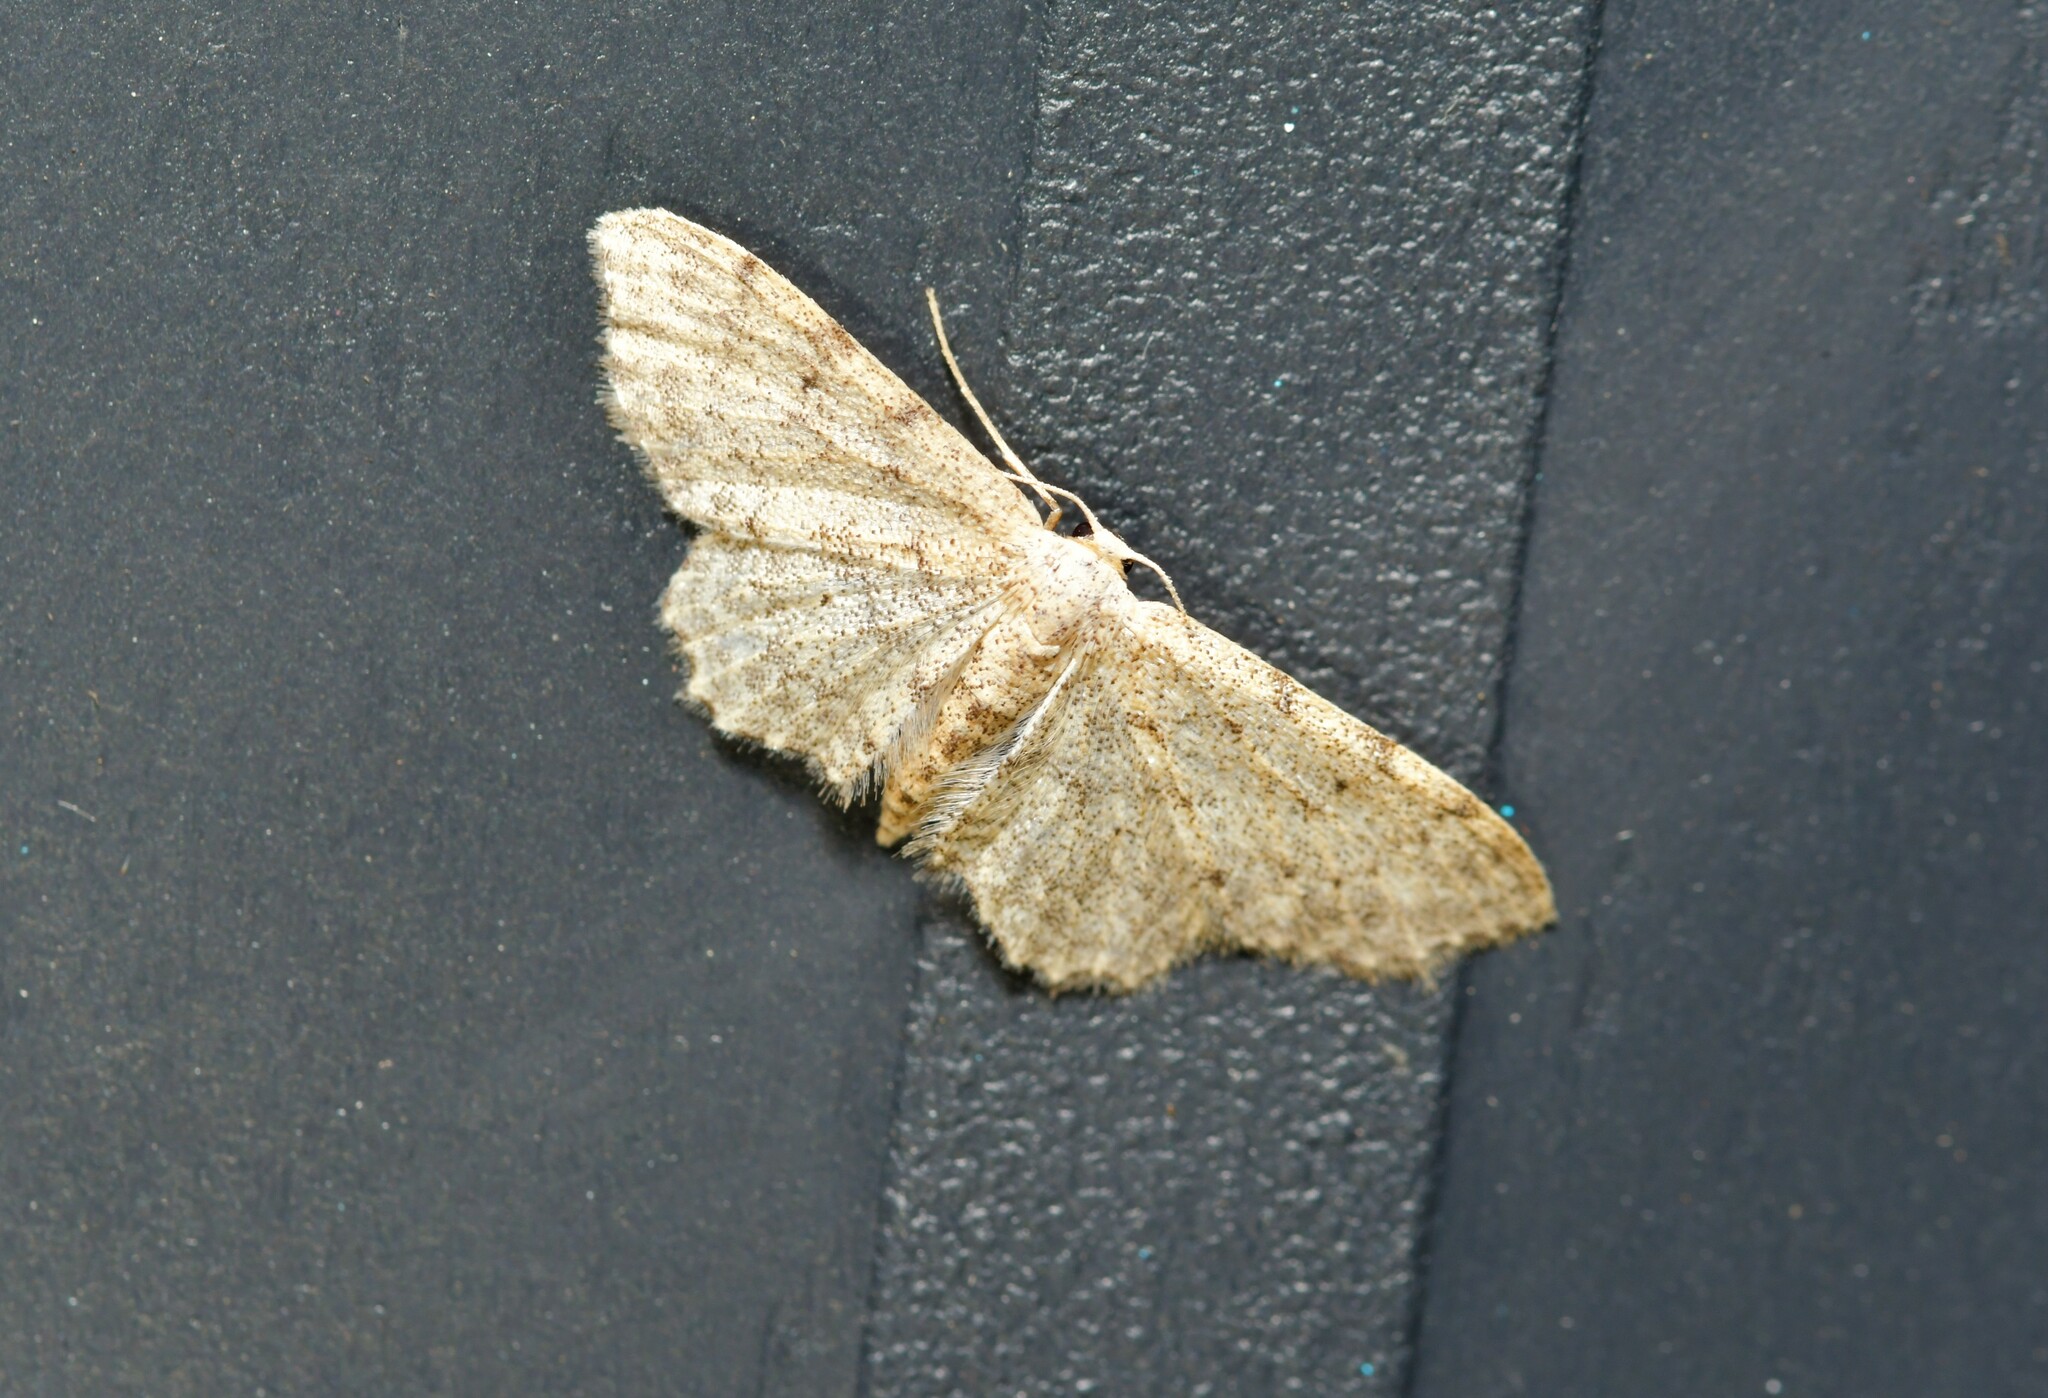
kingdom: Animalia
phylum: Arthropoda
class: Insecta
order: Lepidoptera
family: Geometridae
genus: Idaea
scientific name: Idaea incisaria
